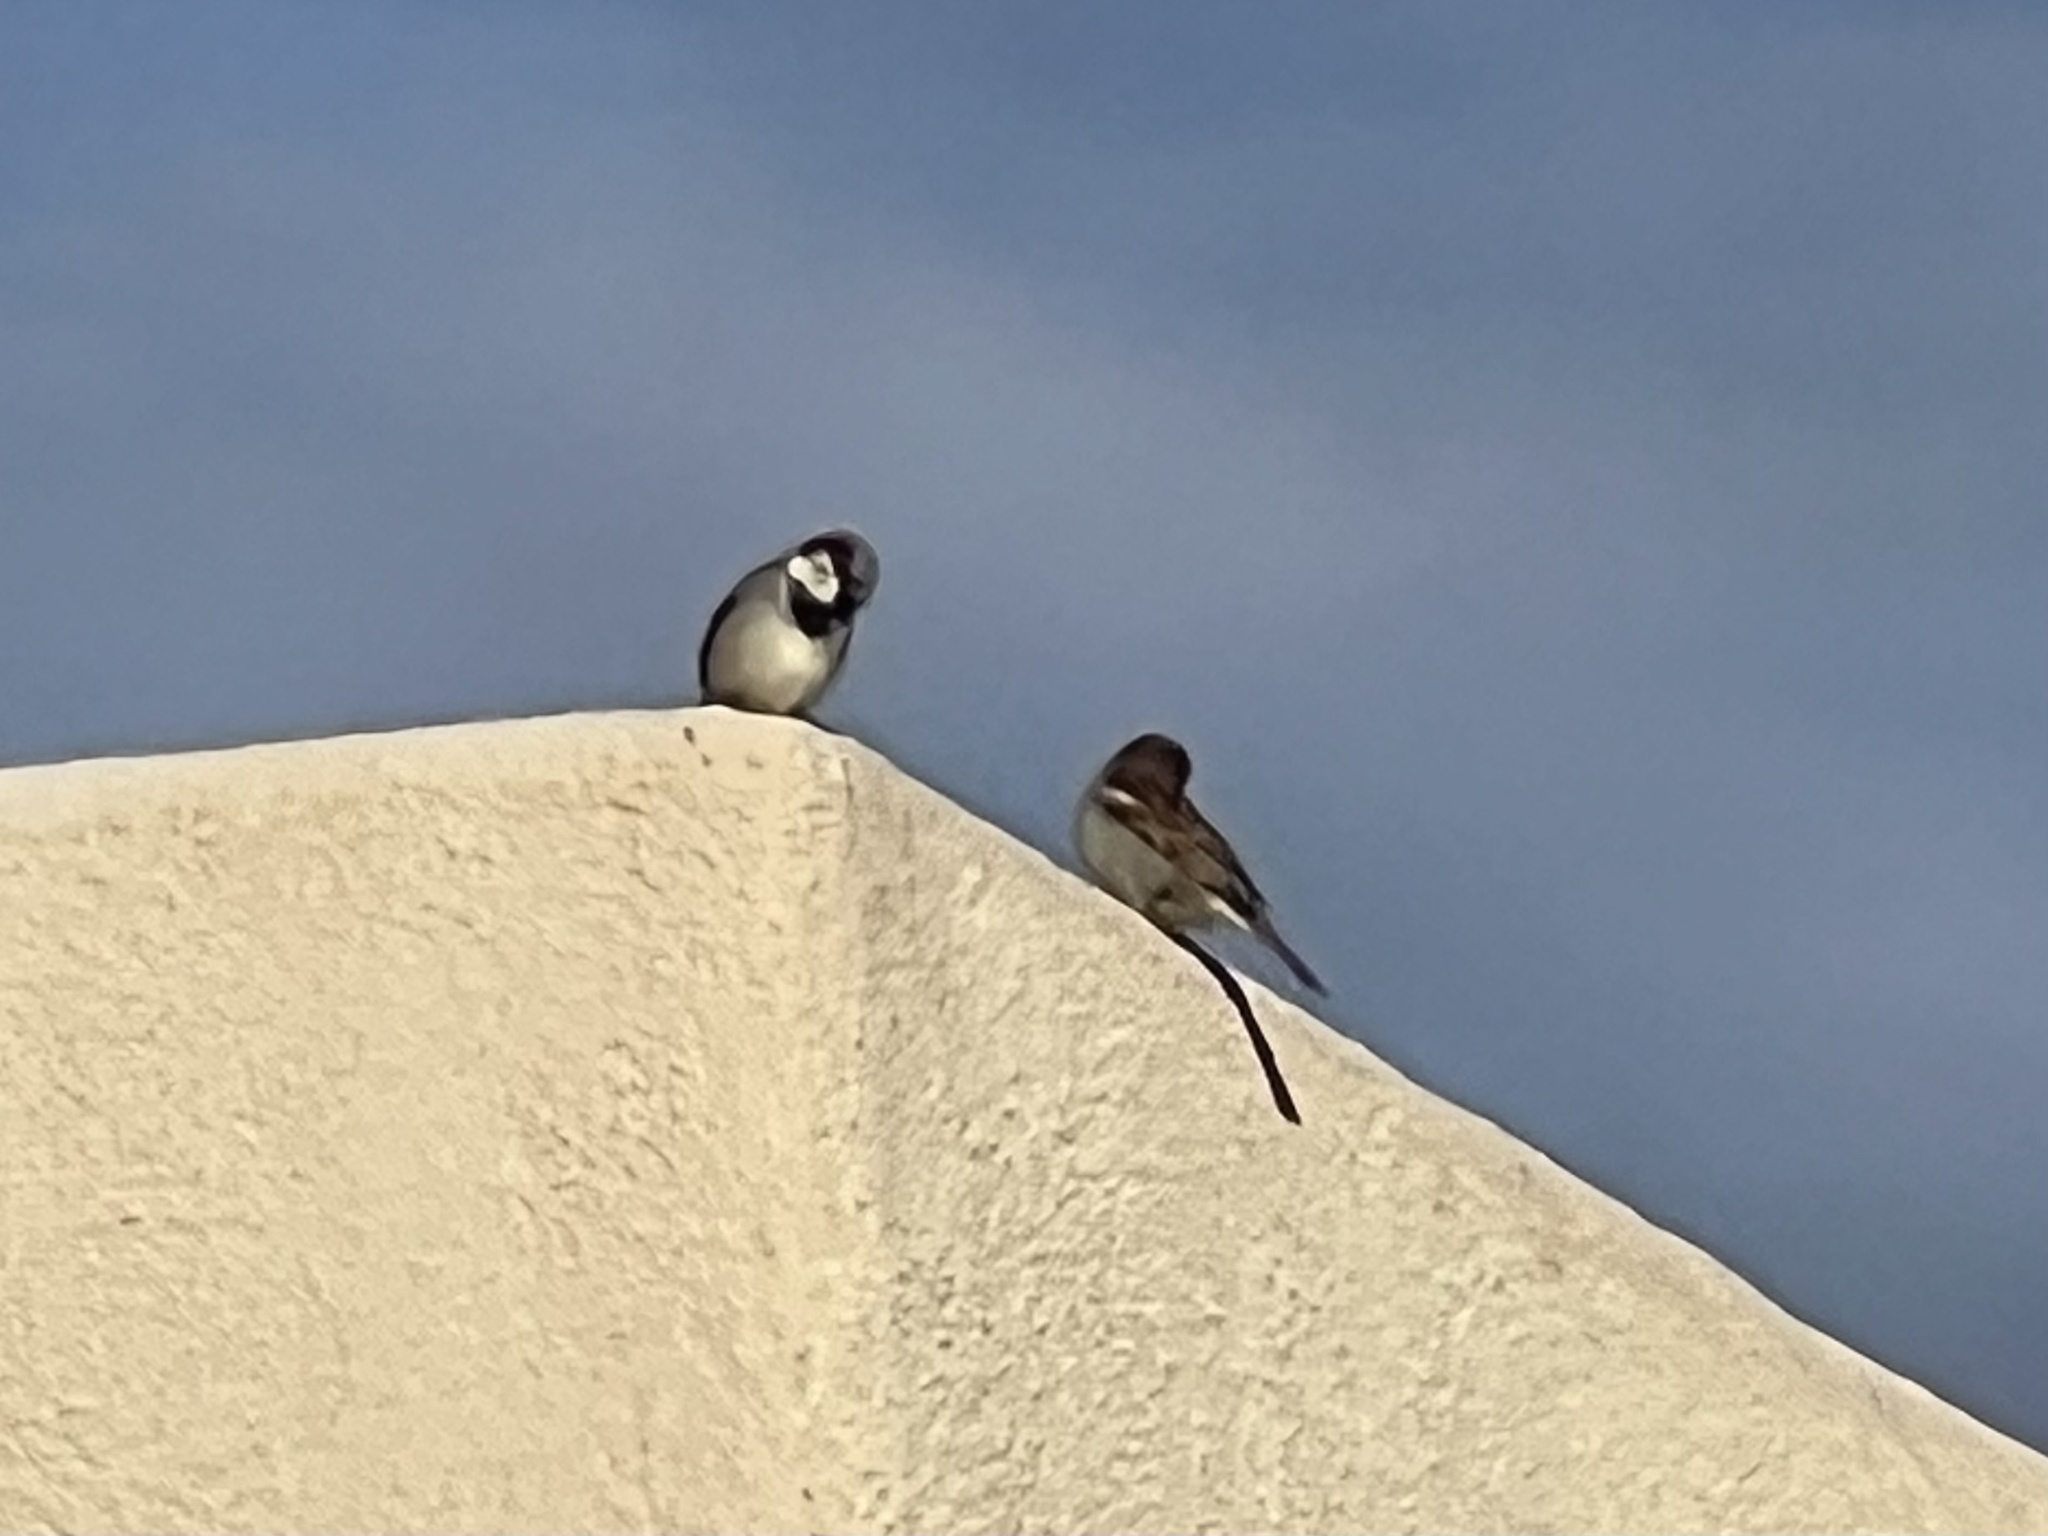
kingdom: Animalia
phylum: Chordata
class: Aves
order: Passeriformes
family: Passeridae
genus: Passer
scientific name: Passer domesticus
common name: House sparrow
